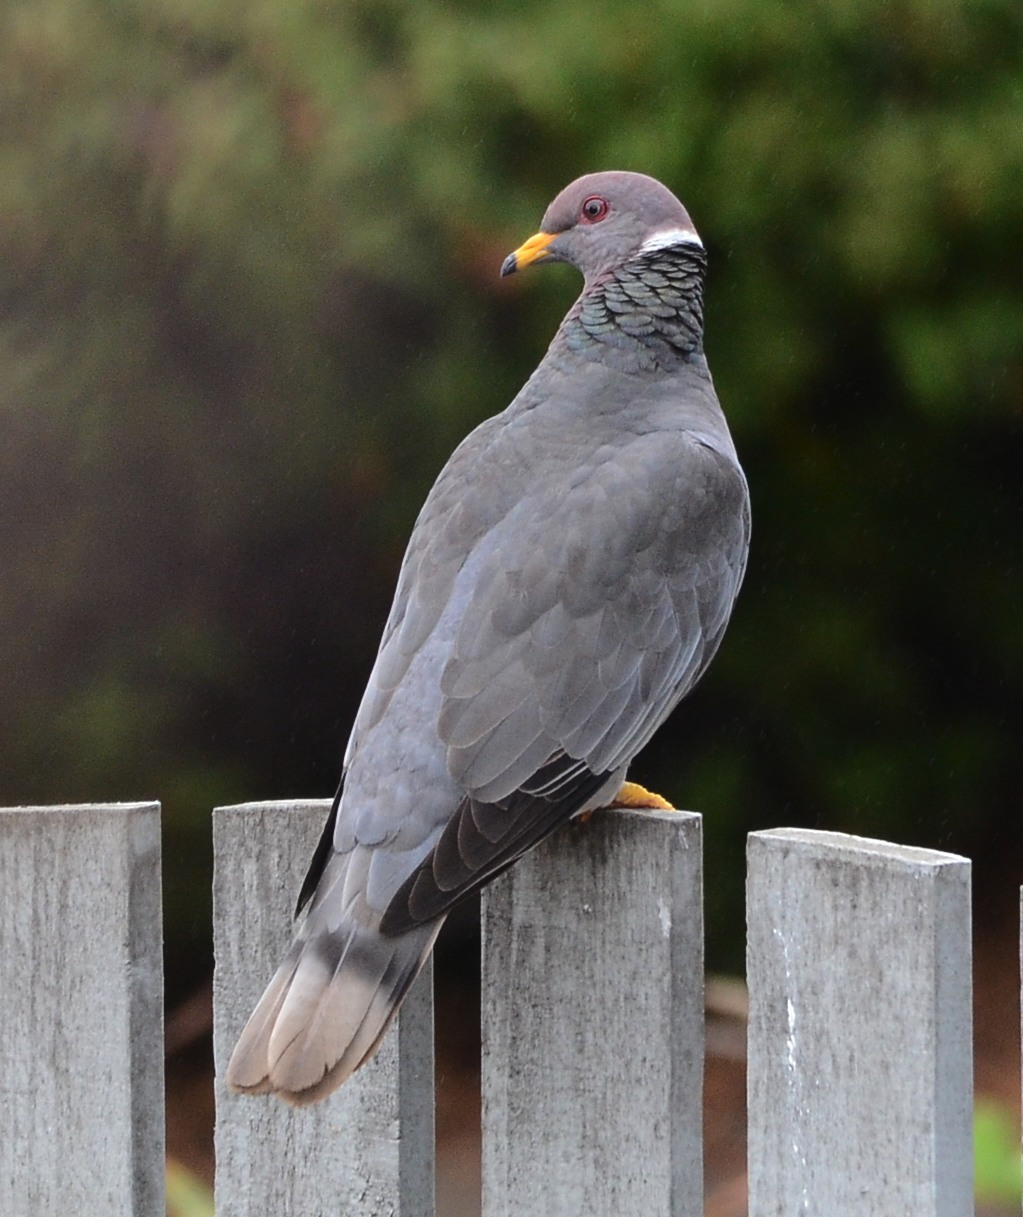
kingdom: Animalia
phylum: Chordata
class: Aves
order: Columbiformes
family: Columbidae
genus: Patagioenas
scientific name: Patagioenas fasciata
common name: Band-tailed pigeon
